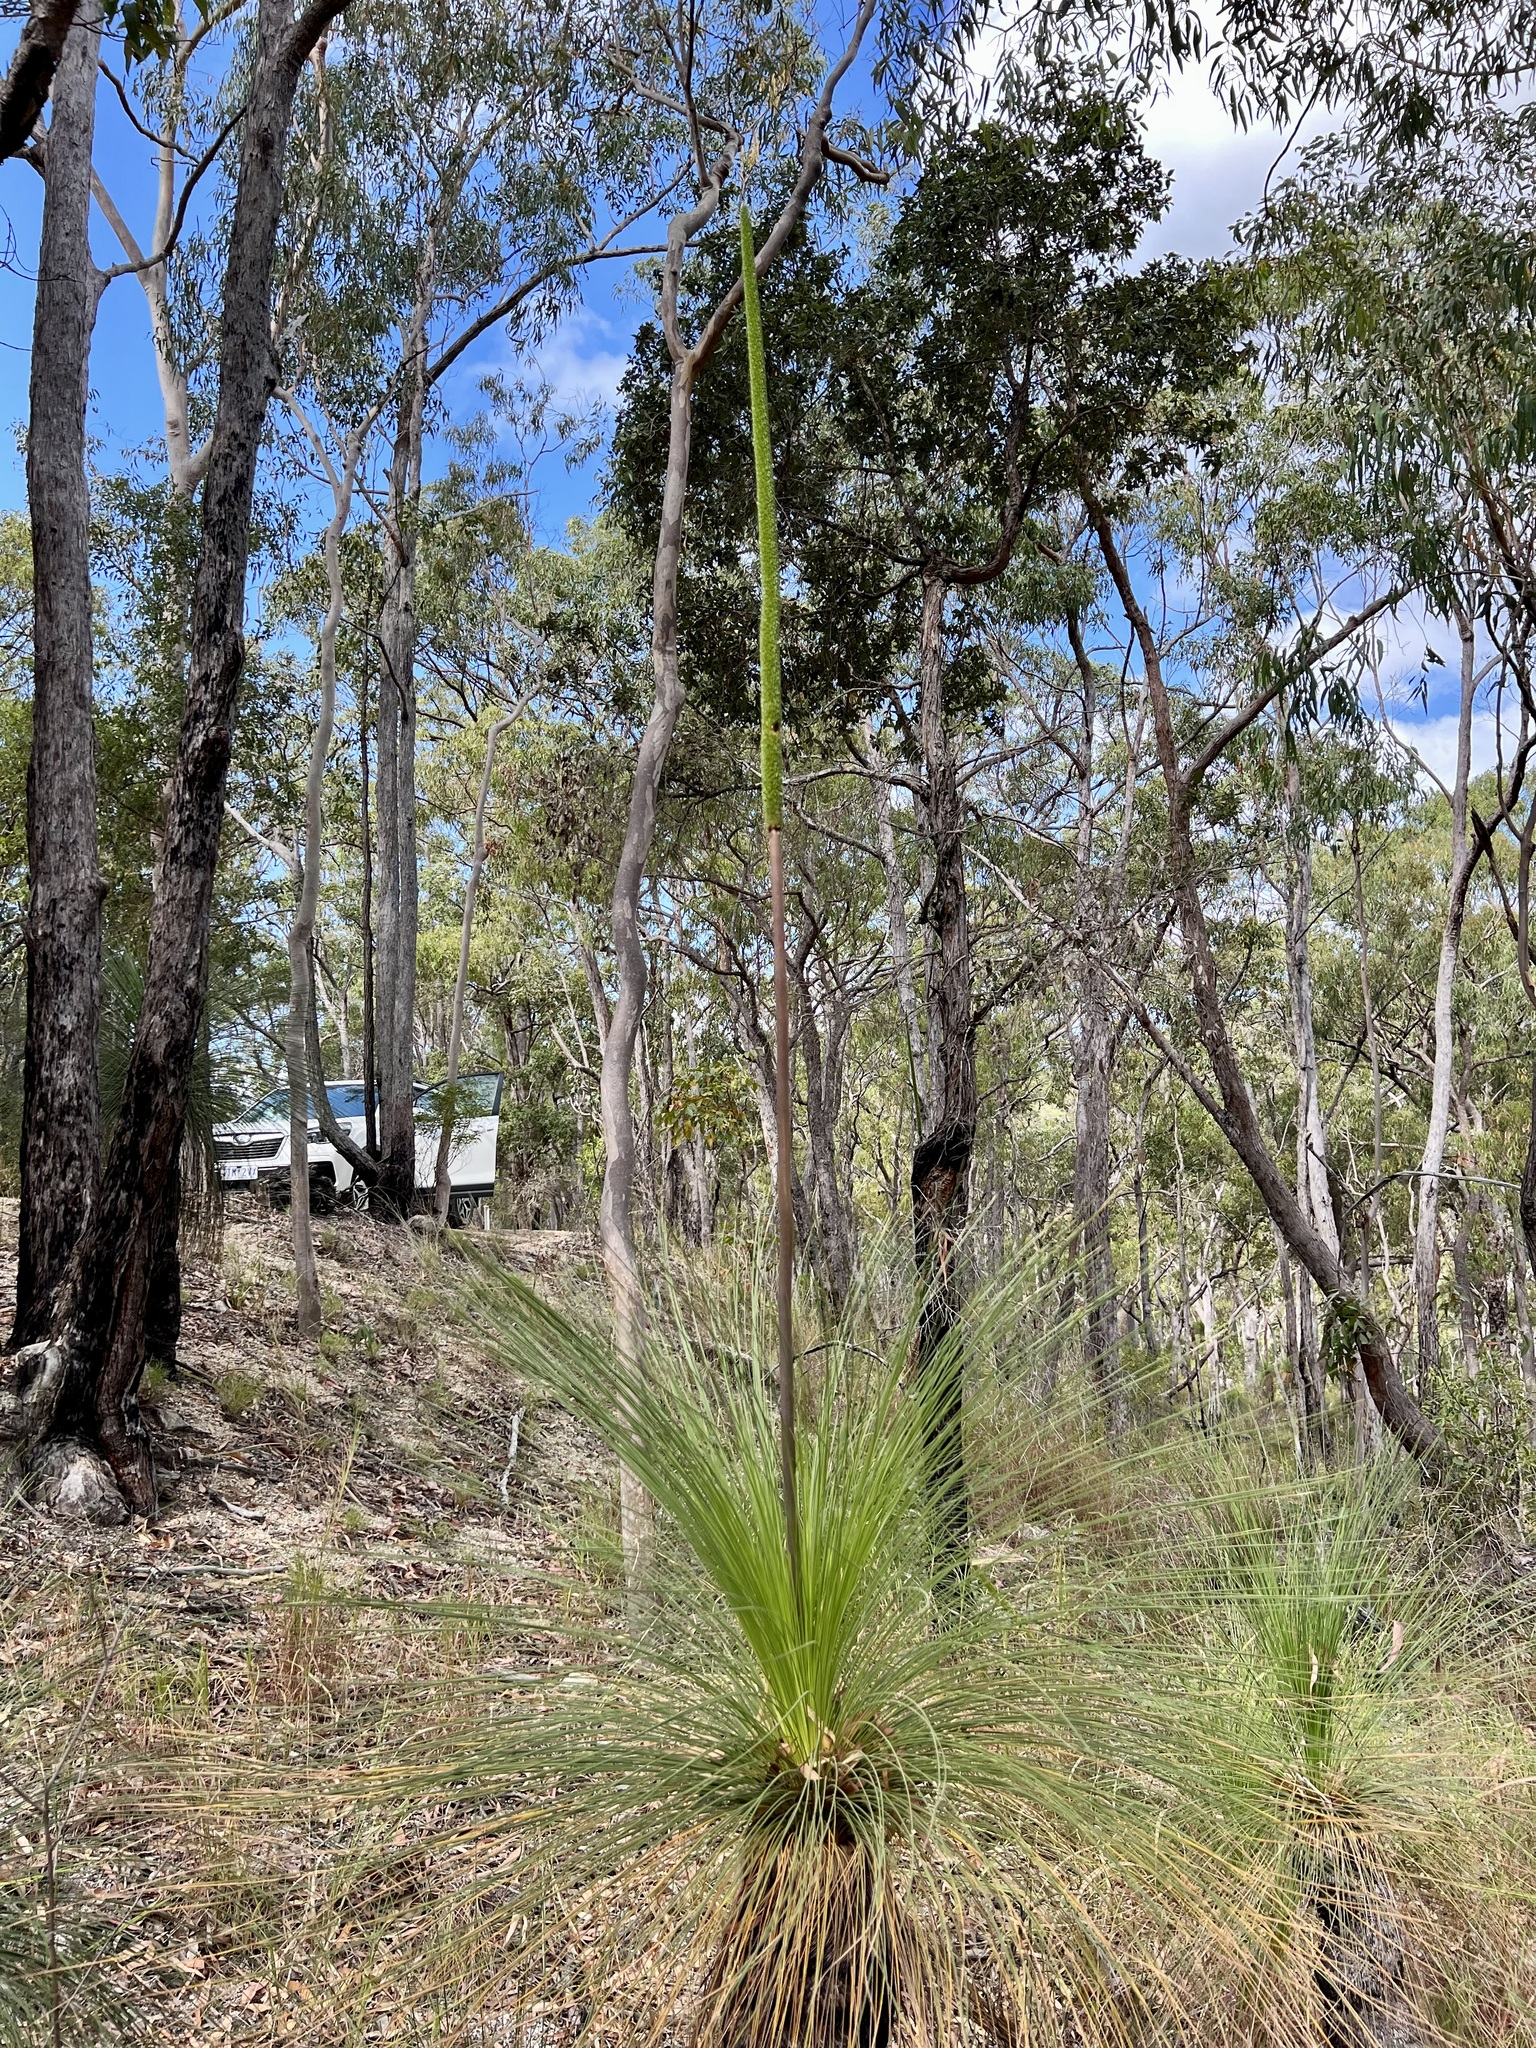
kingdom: Plantae
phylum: Tracheophyta
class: Liliopsida
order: Asparagales
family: Asphodelaceae
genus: Xanthorrhoea
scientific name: Xanthorrhoea johnsonii
